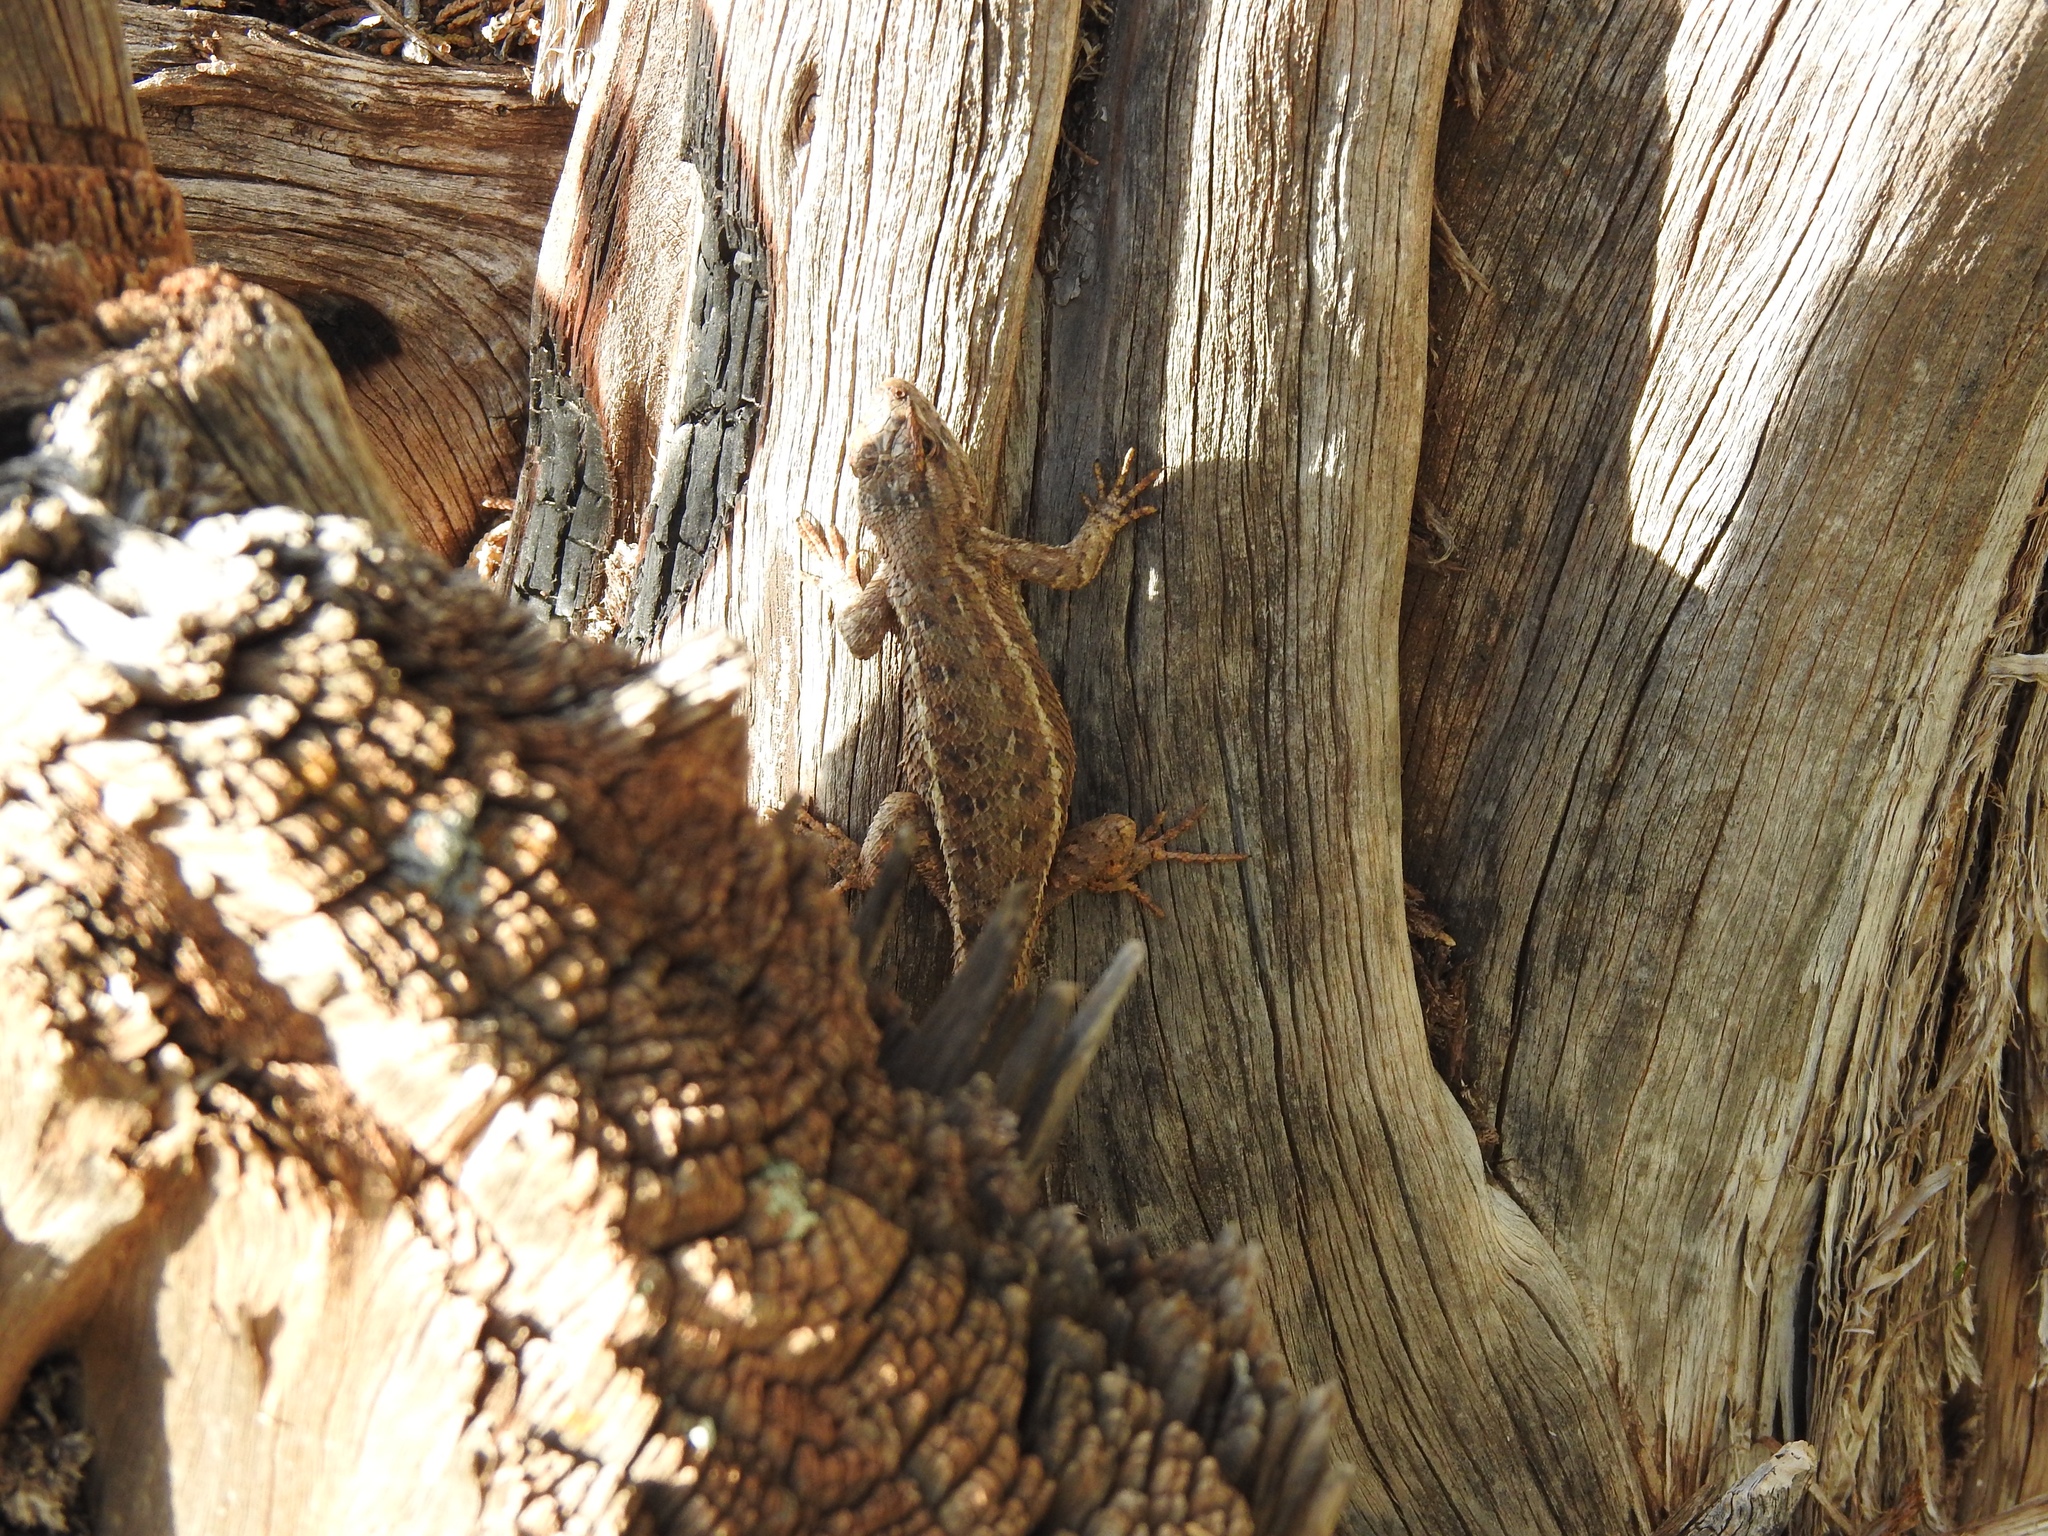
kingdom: Animalia
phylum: Chordata
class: Squamata
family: Phrynosomatidae
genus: Sceloporus
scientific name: Sceloporus tristichus
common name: Plateau fence lizard
